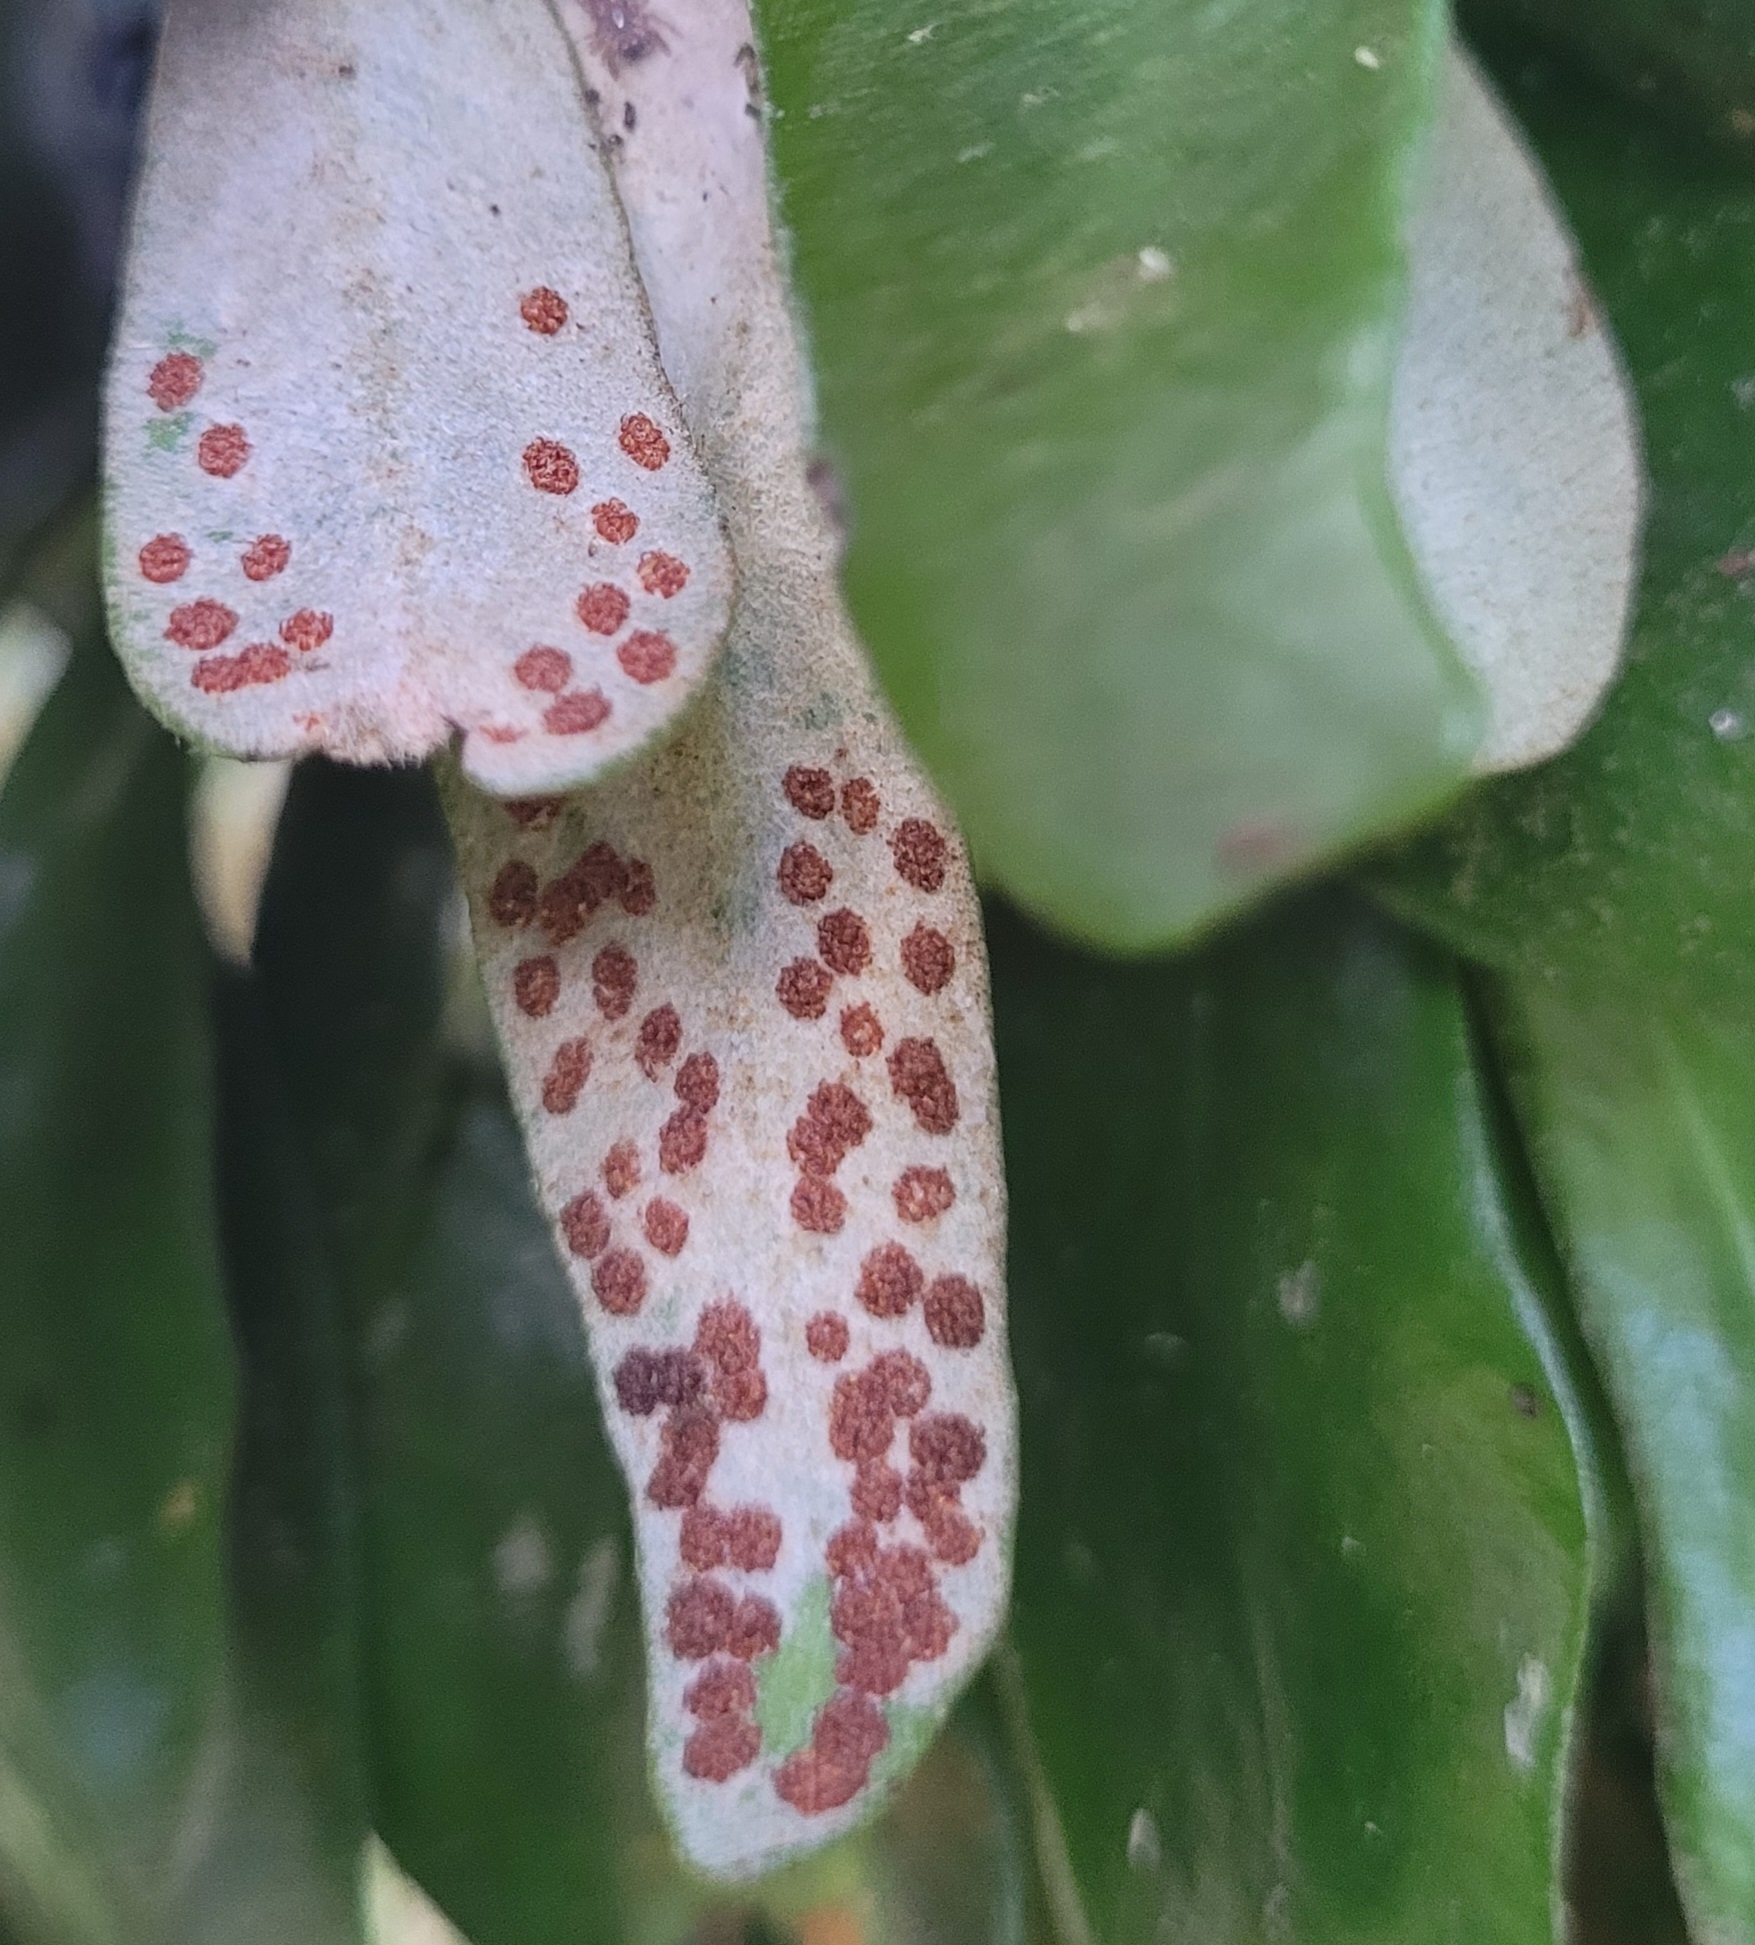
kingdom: Plantae
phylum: Tracheophyta
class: Polypodiopsida
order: Polypodiales
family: Polypodiaceae
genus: Pyrrosia
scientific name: Pyrrosia eleagnifolia
